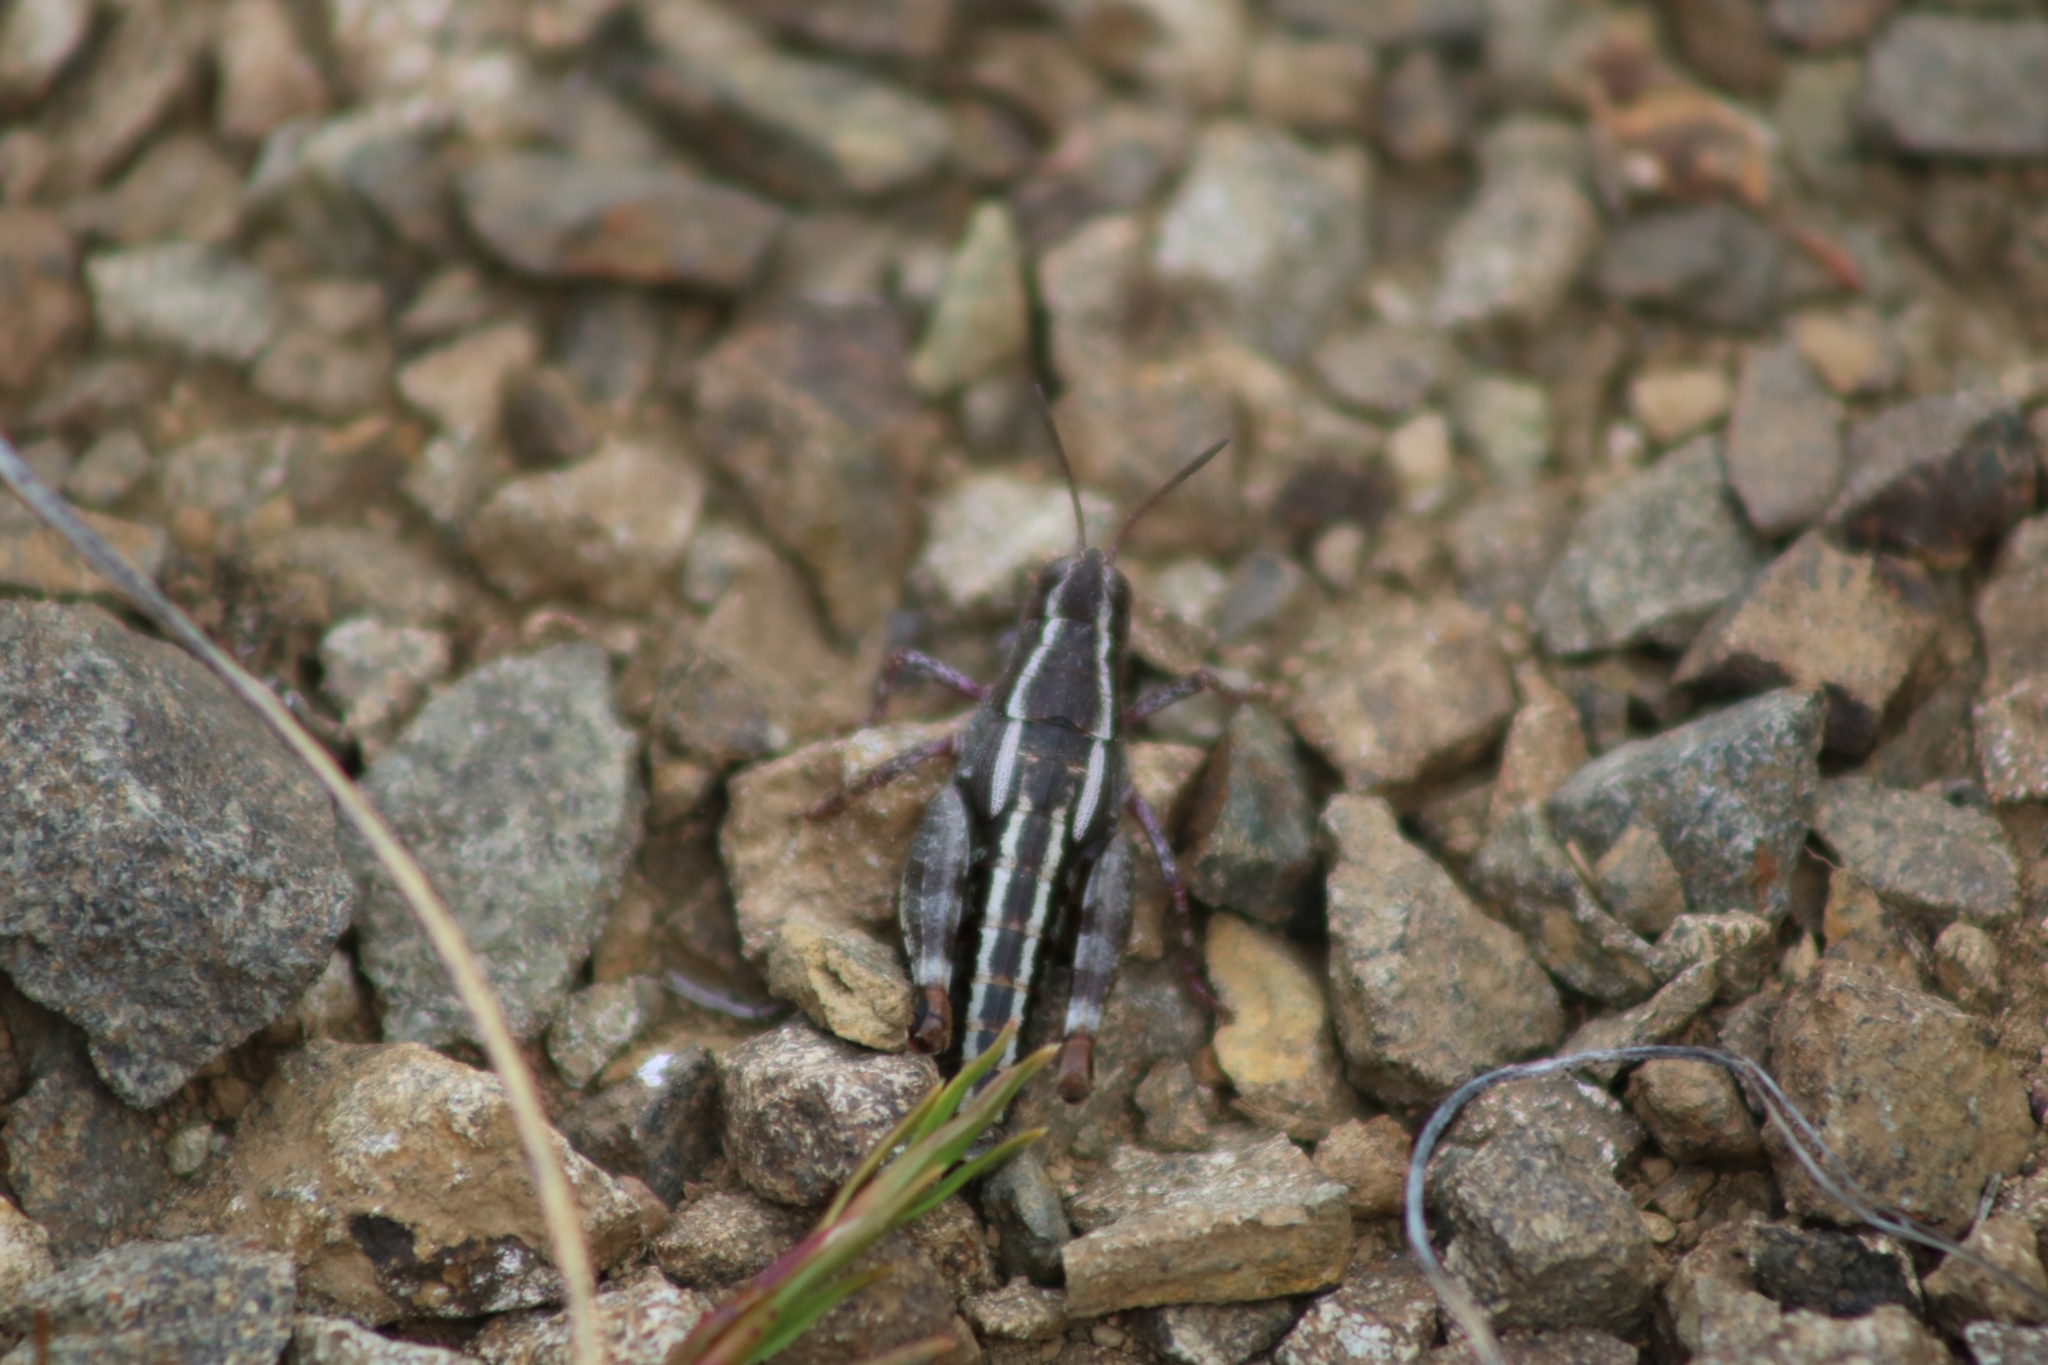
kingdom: Animalia
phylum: Arthropoda
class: Insecta
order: Orthoptera
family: Acrididae
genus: Sigaus
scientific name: Sigaus australis
